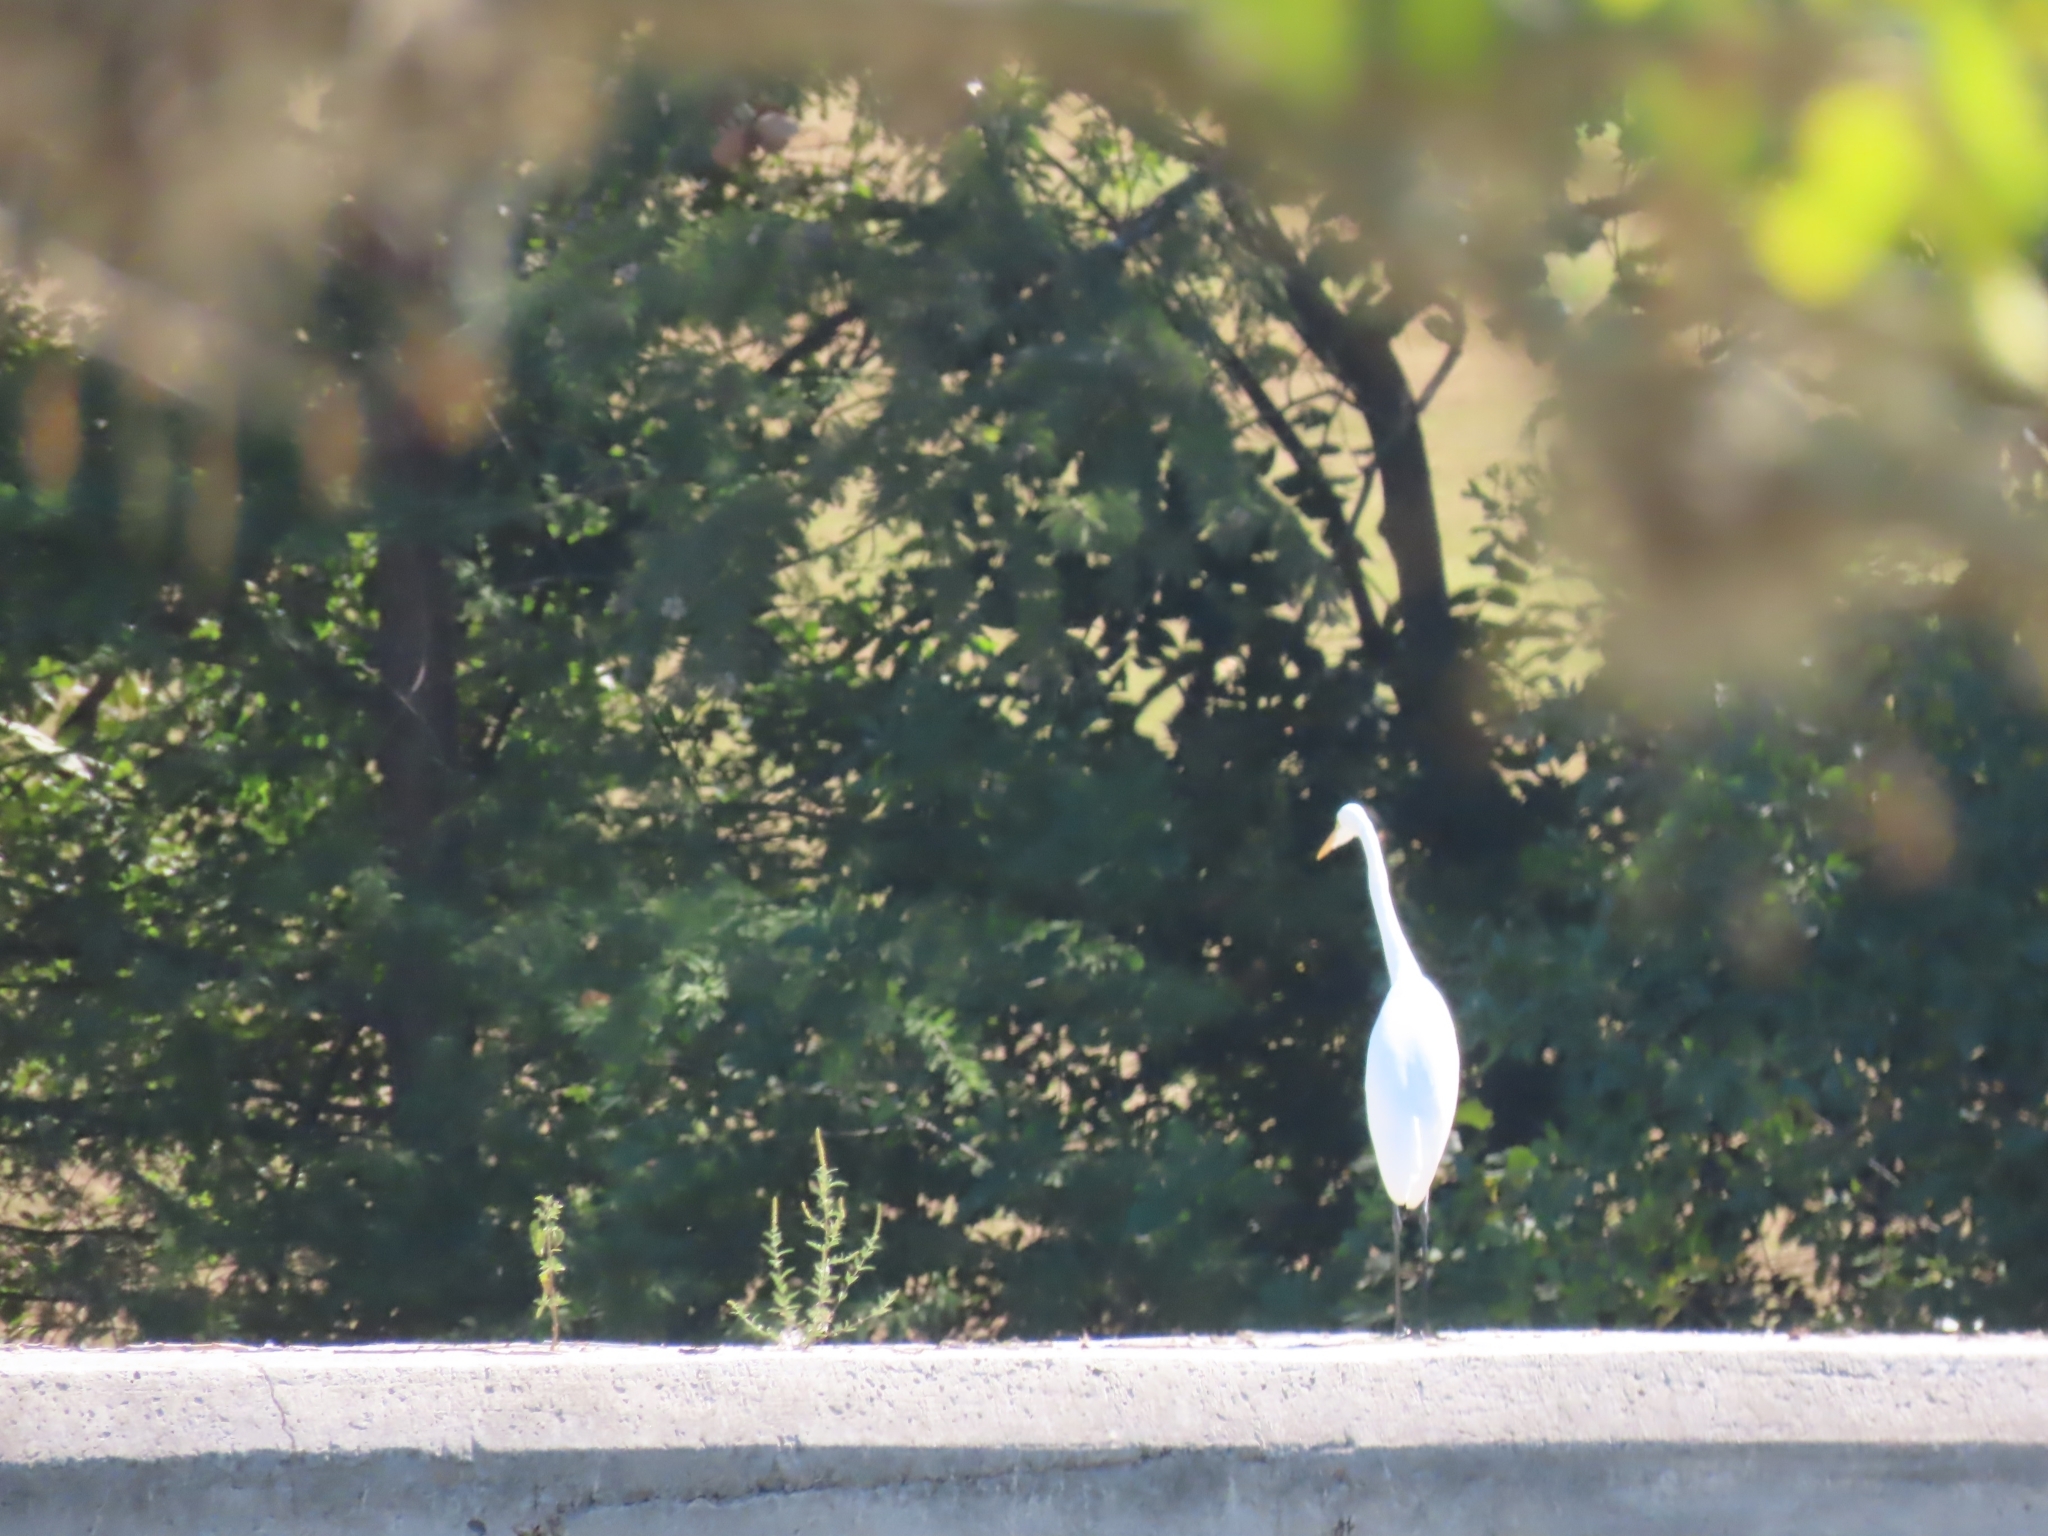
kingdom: Animalia
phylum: Chordata
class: Aves
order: Pelecaniformes
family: Ardeidae
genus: Ardea
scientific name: Ardea alba
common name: Great egret
